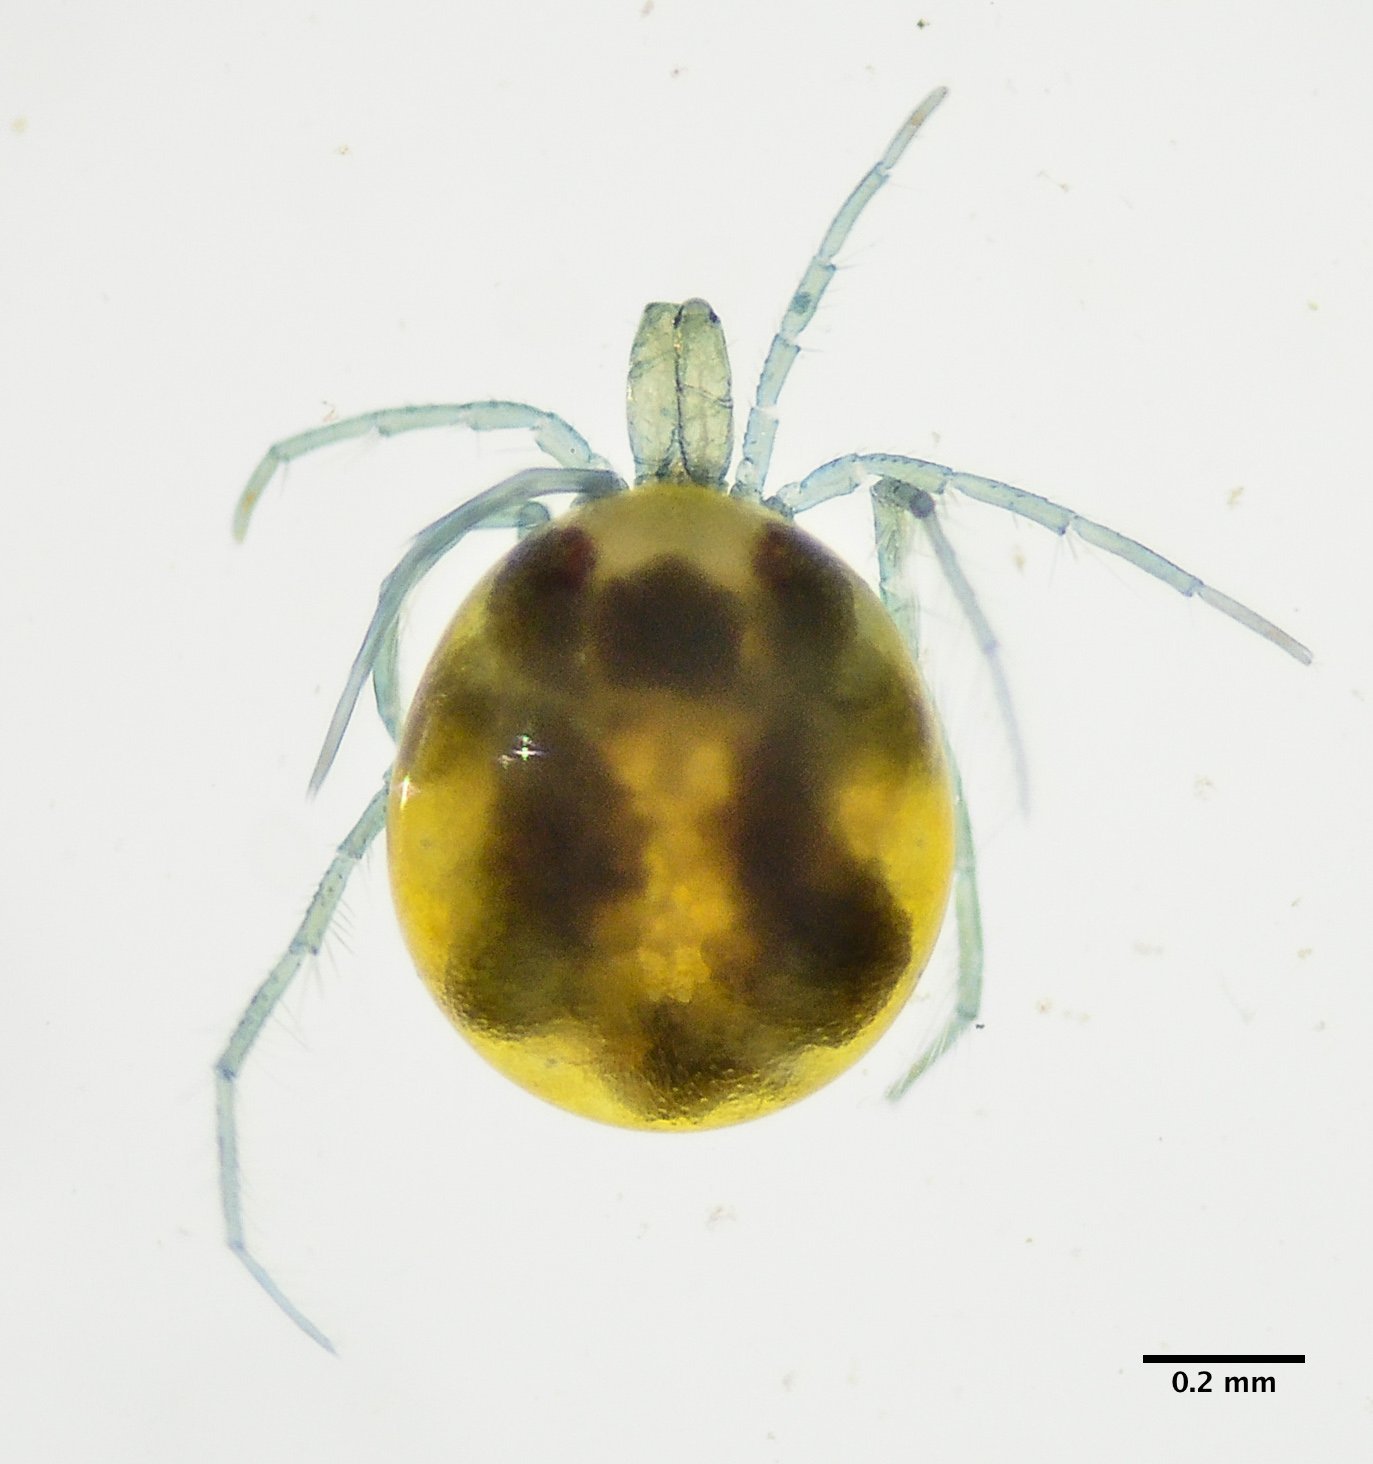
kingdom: Animalia
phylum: Arthropoda
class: Arachnida
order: Trombidiformes
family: Limnesiidae
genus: Limnesia
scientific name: Limnesia
